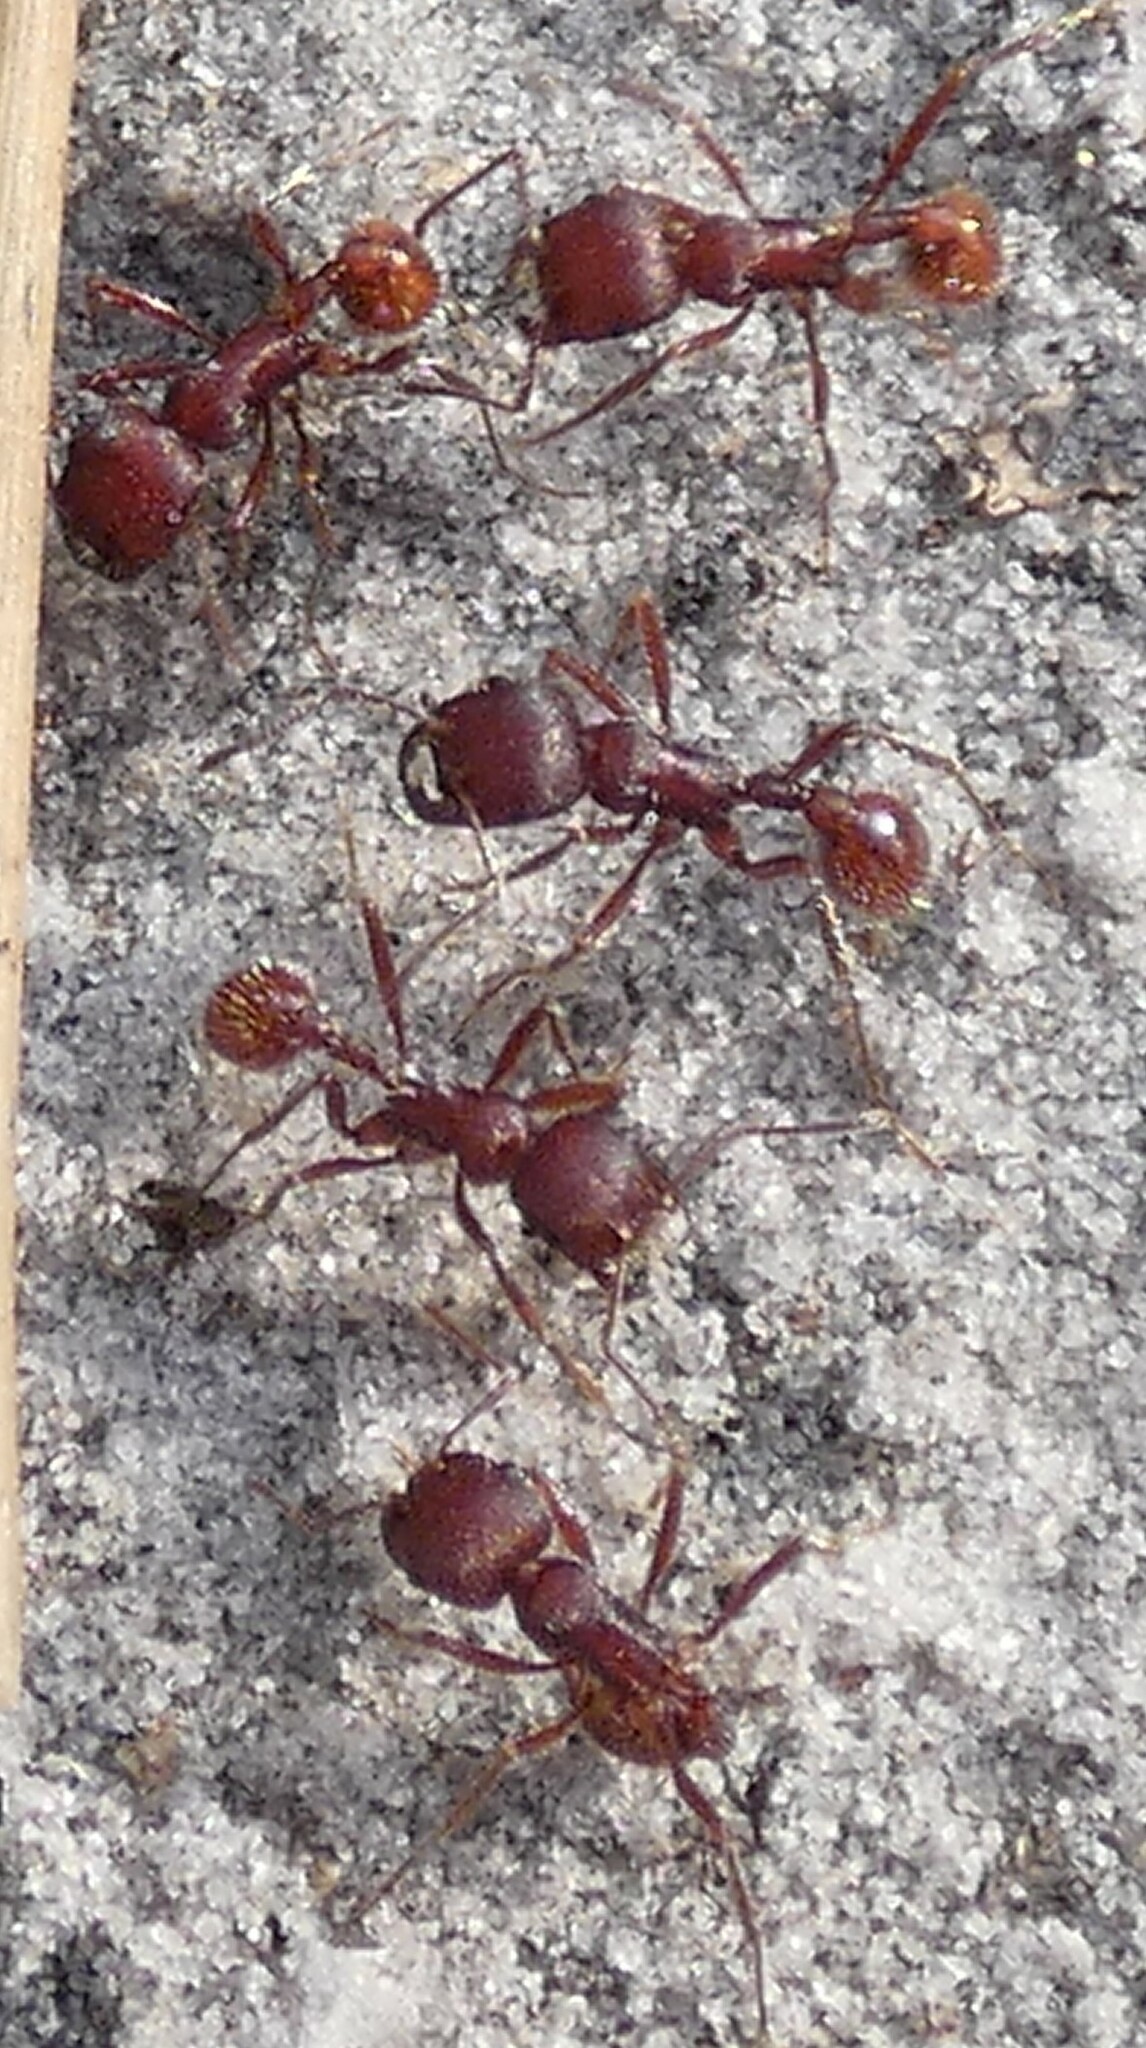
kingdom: Animalia
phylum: Arthropoda
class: Insecta
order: Hymenoptera
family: Formicidae
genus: Pogonomyrmex
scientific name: Pogonomyrmex badius
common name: Florida harvester ant
